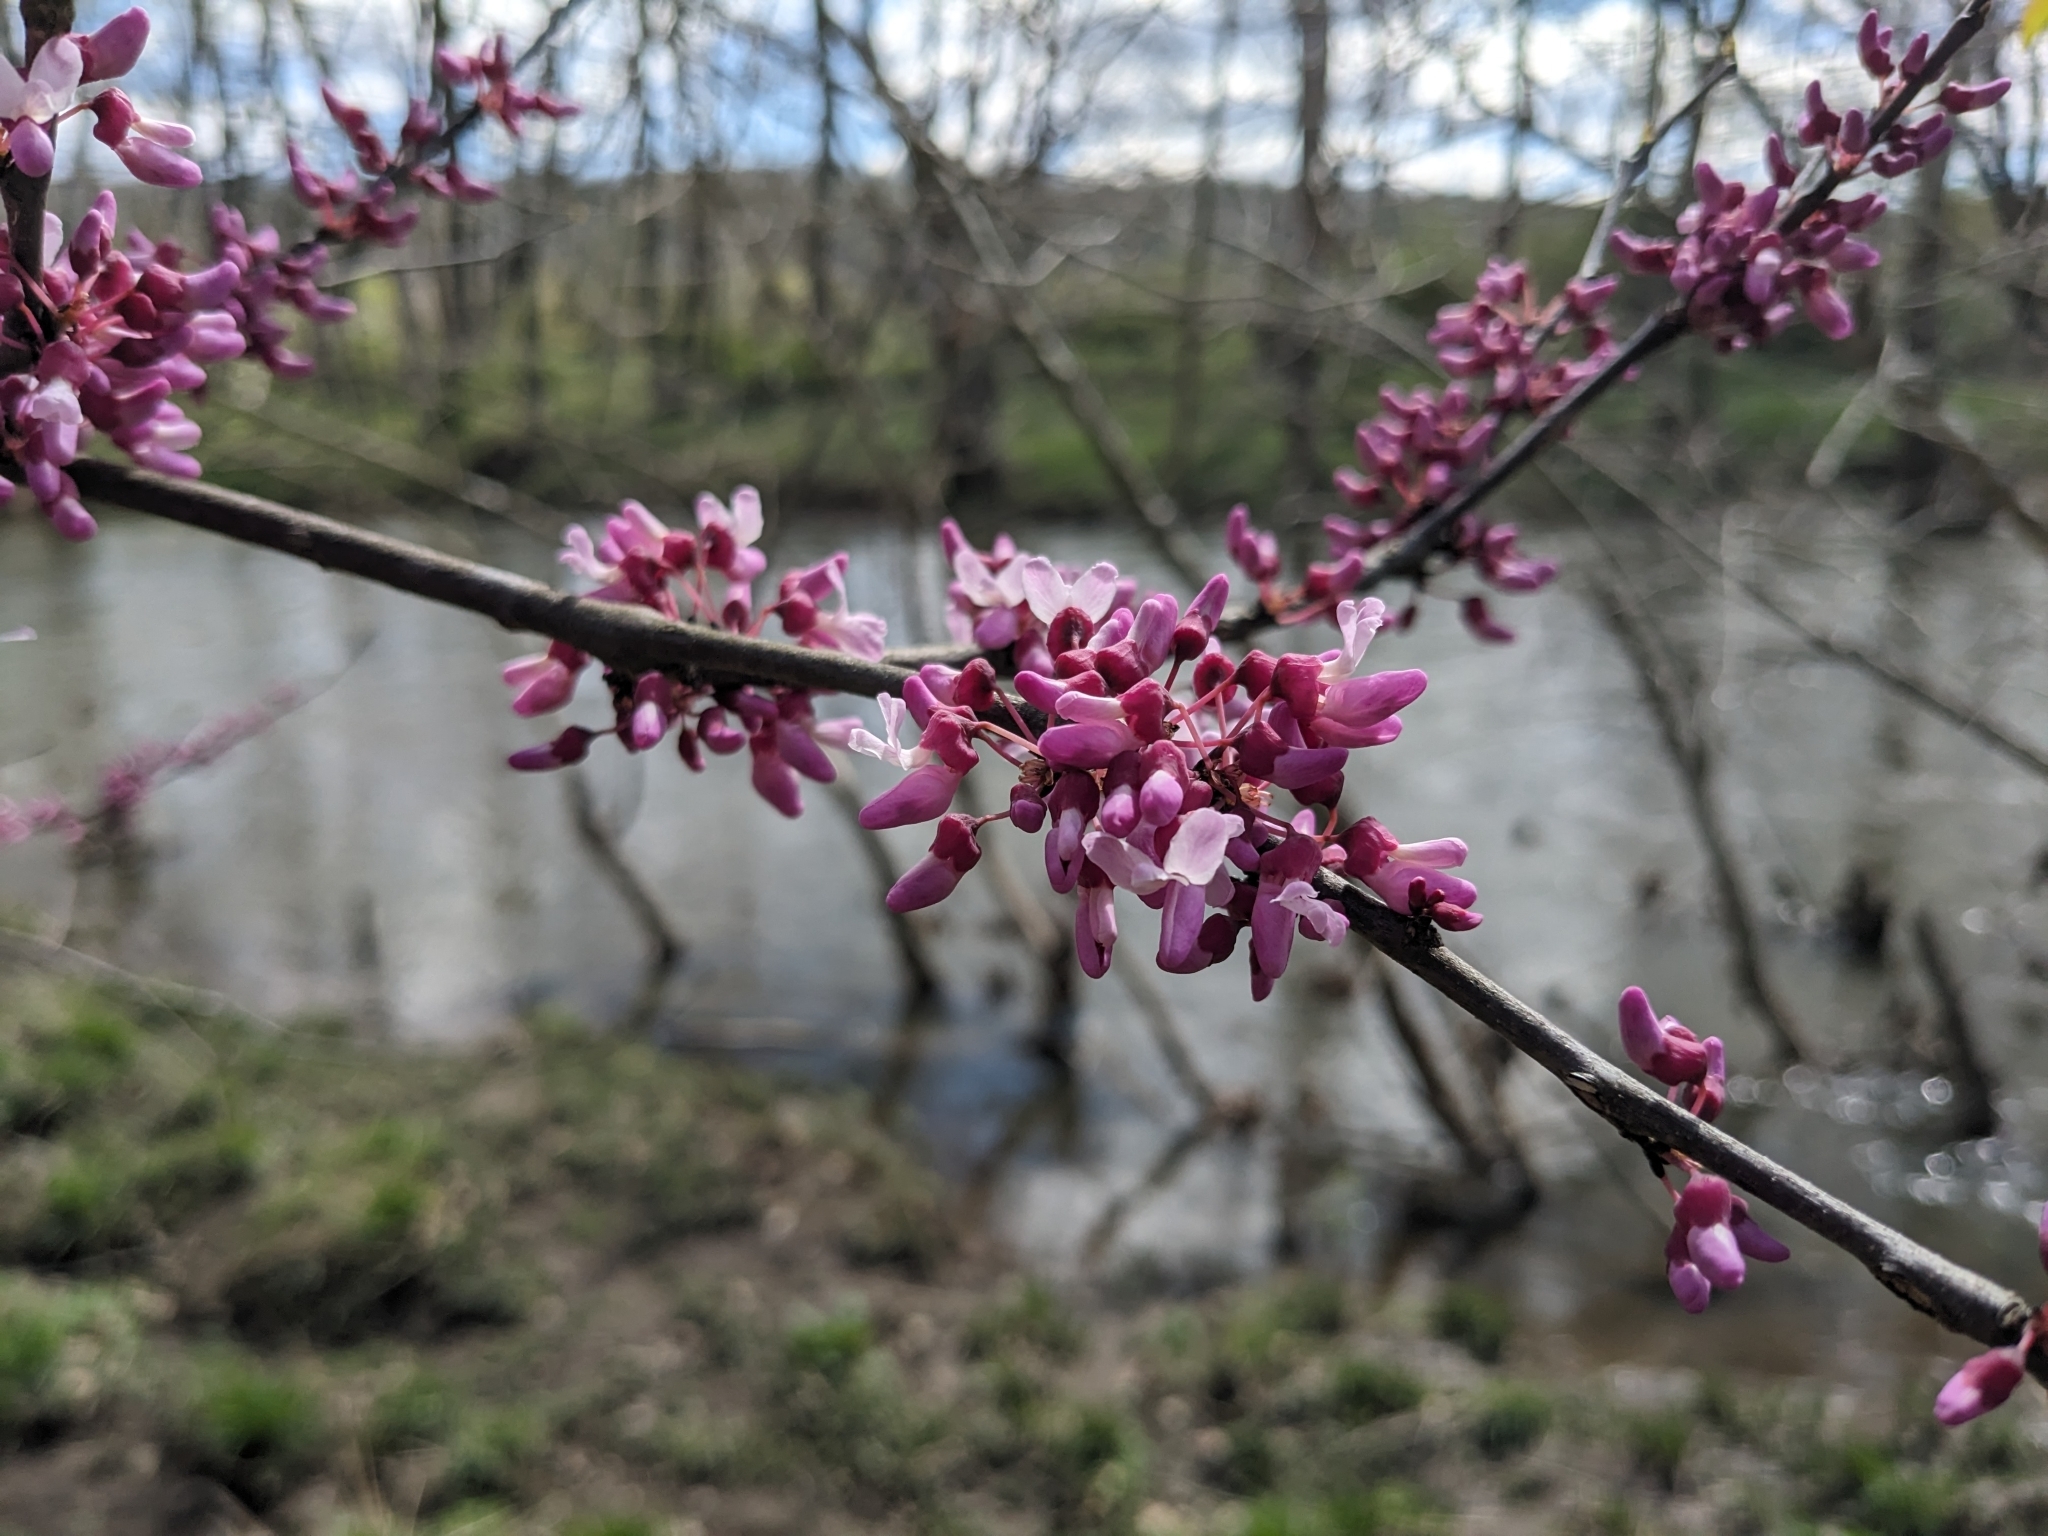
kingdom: Plantae
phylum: Tracheophyta
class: Magnoliopsida
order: Fabales
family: Fabaceae
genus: Cercis
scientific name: Cercis canadensis
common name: Eastern redbud
